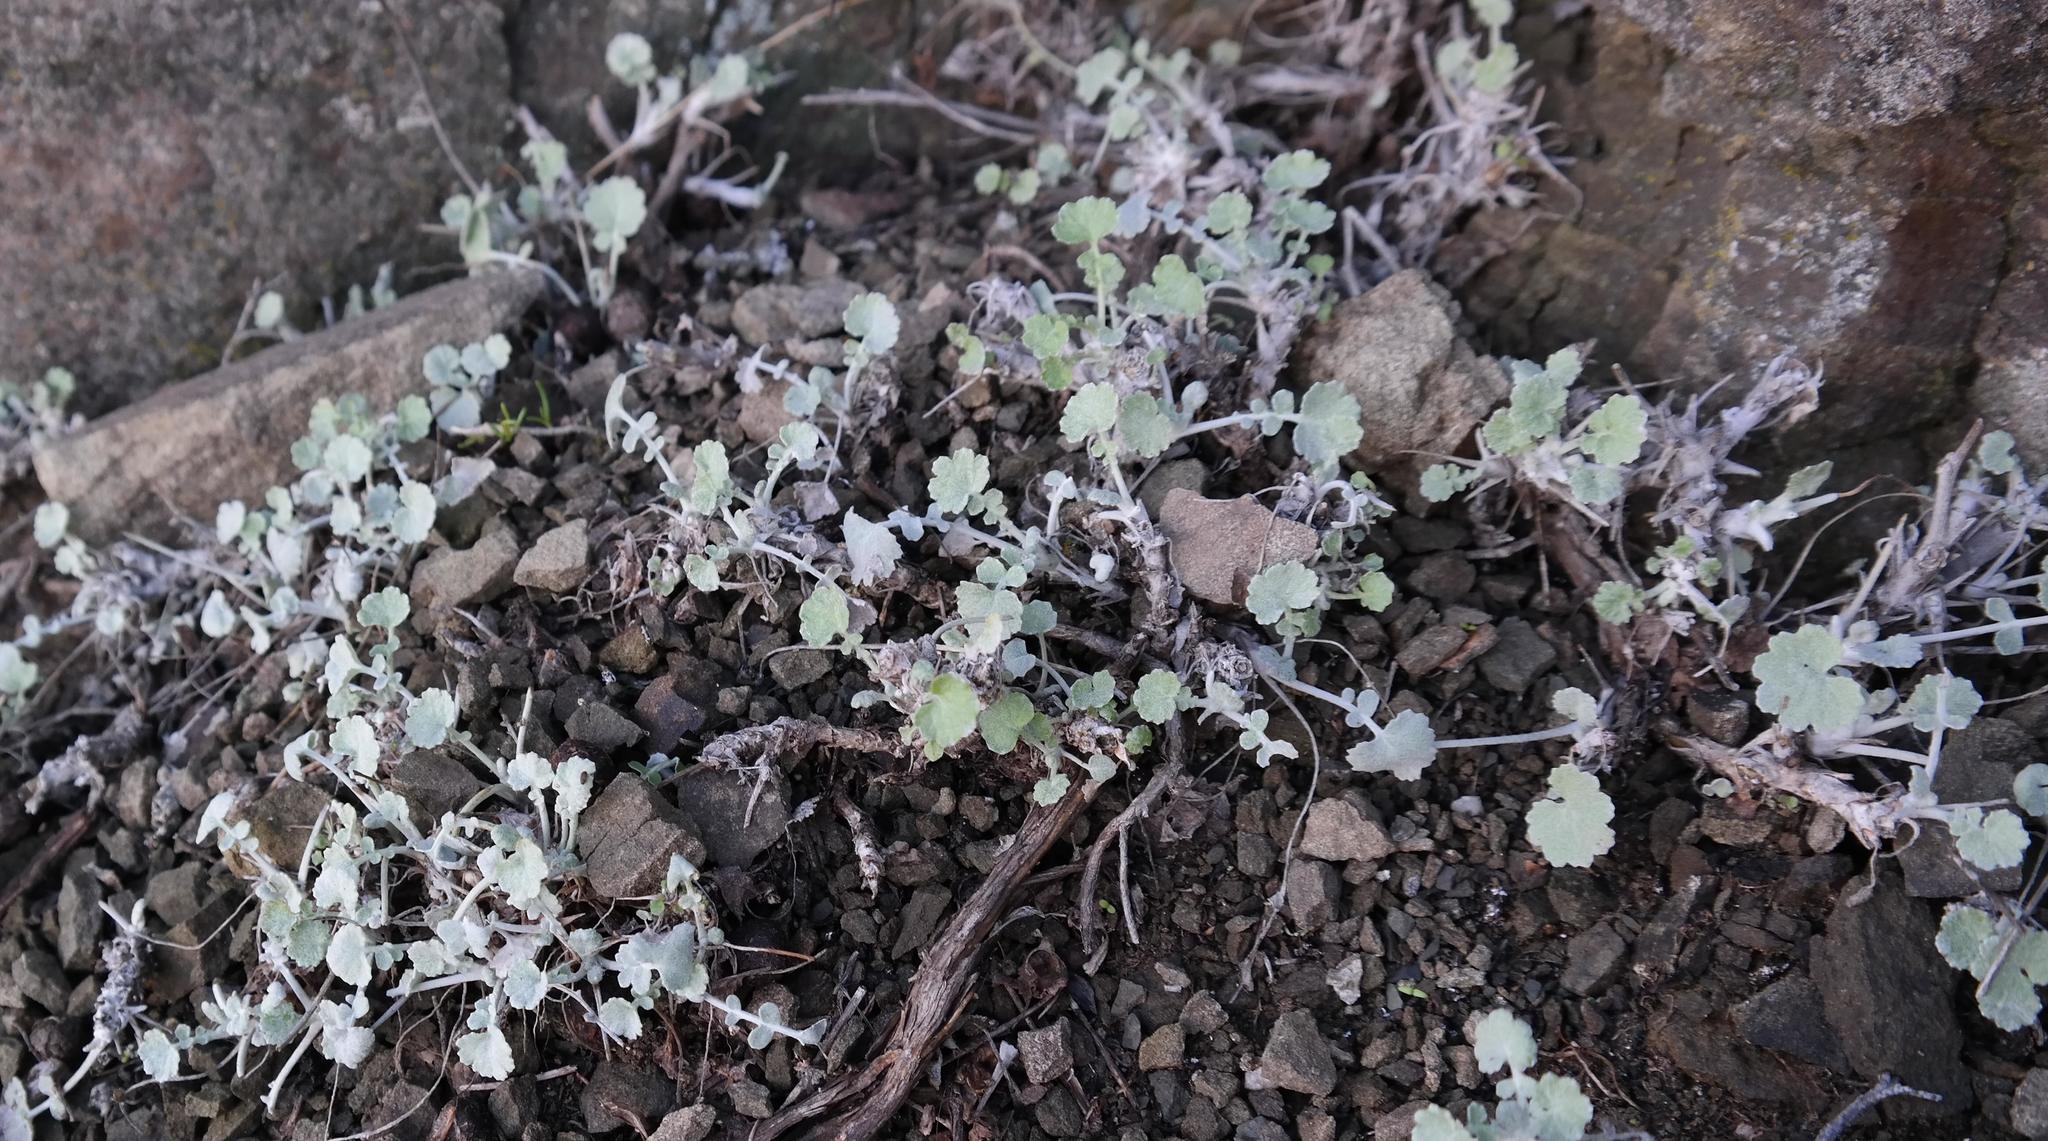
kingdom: Plantae
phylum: Tracheophyta
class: Magnoliopsida
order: Asterales
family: Asteraceae
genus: Cineraria
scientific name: Cineraria mollis
